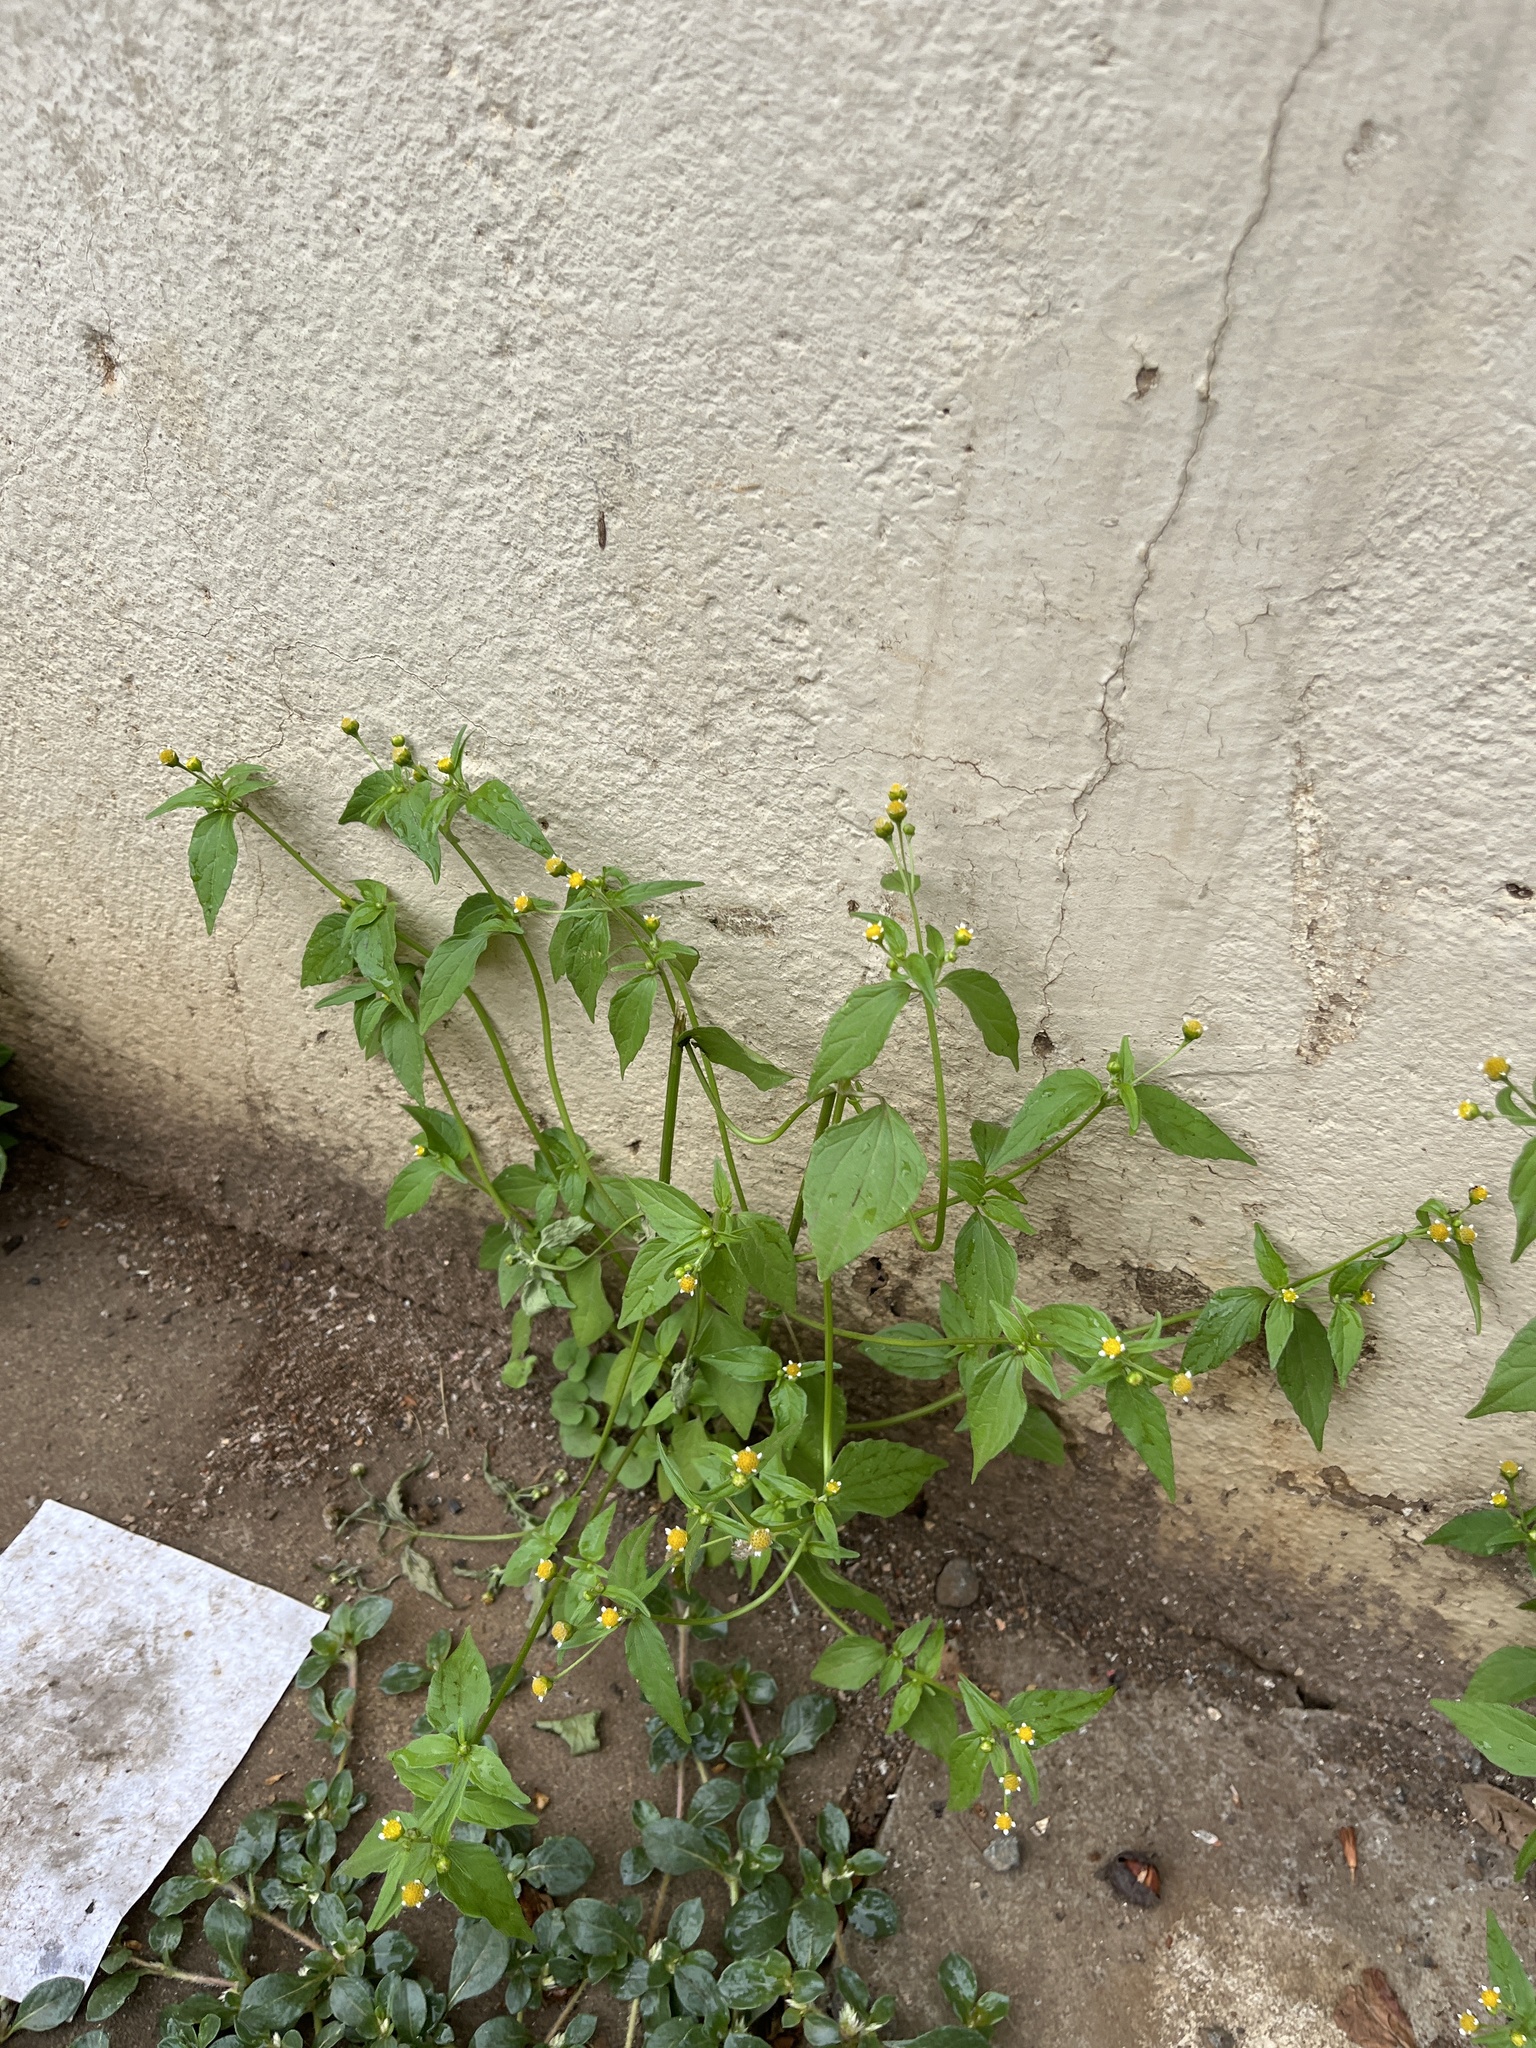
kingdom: Plantae
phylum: Tracheophyta
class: Magnoliopsida
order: Asterales
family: Asteraceae
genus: Galinsoga
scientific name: Galinsoga parviflora
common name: Gallant soldier
